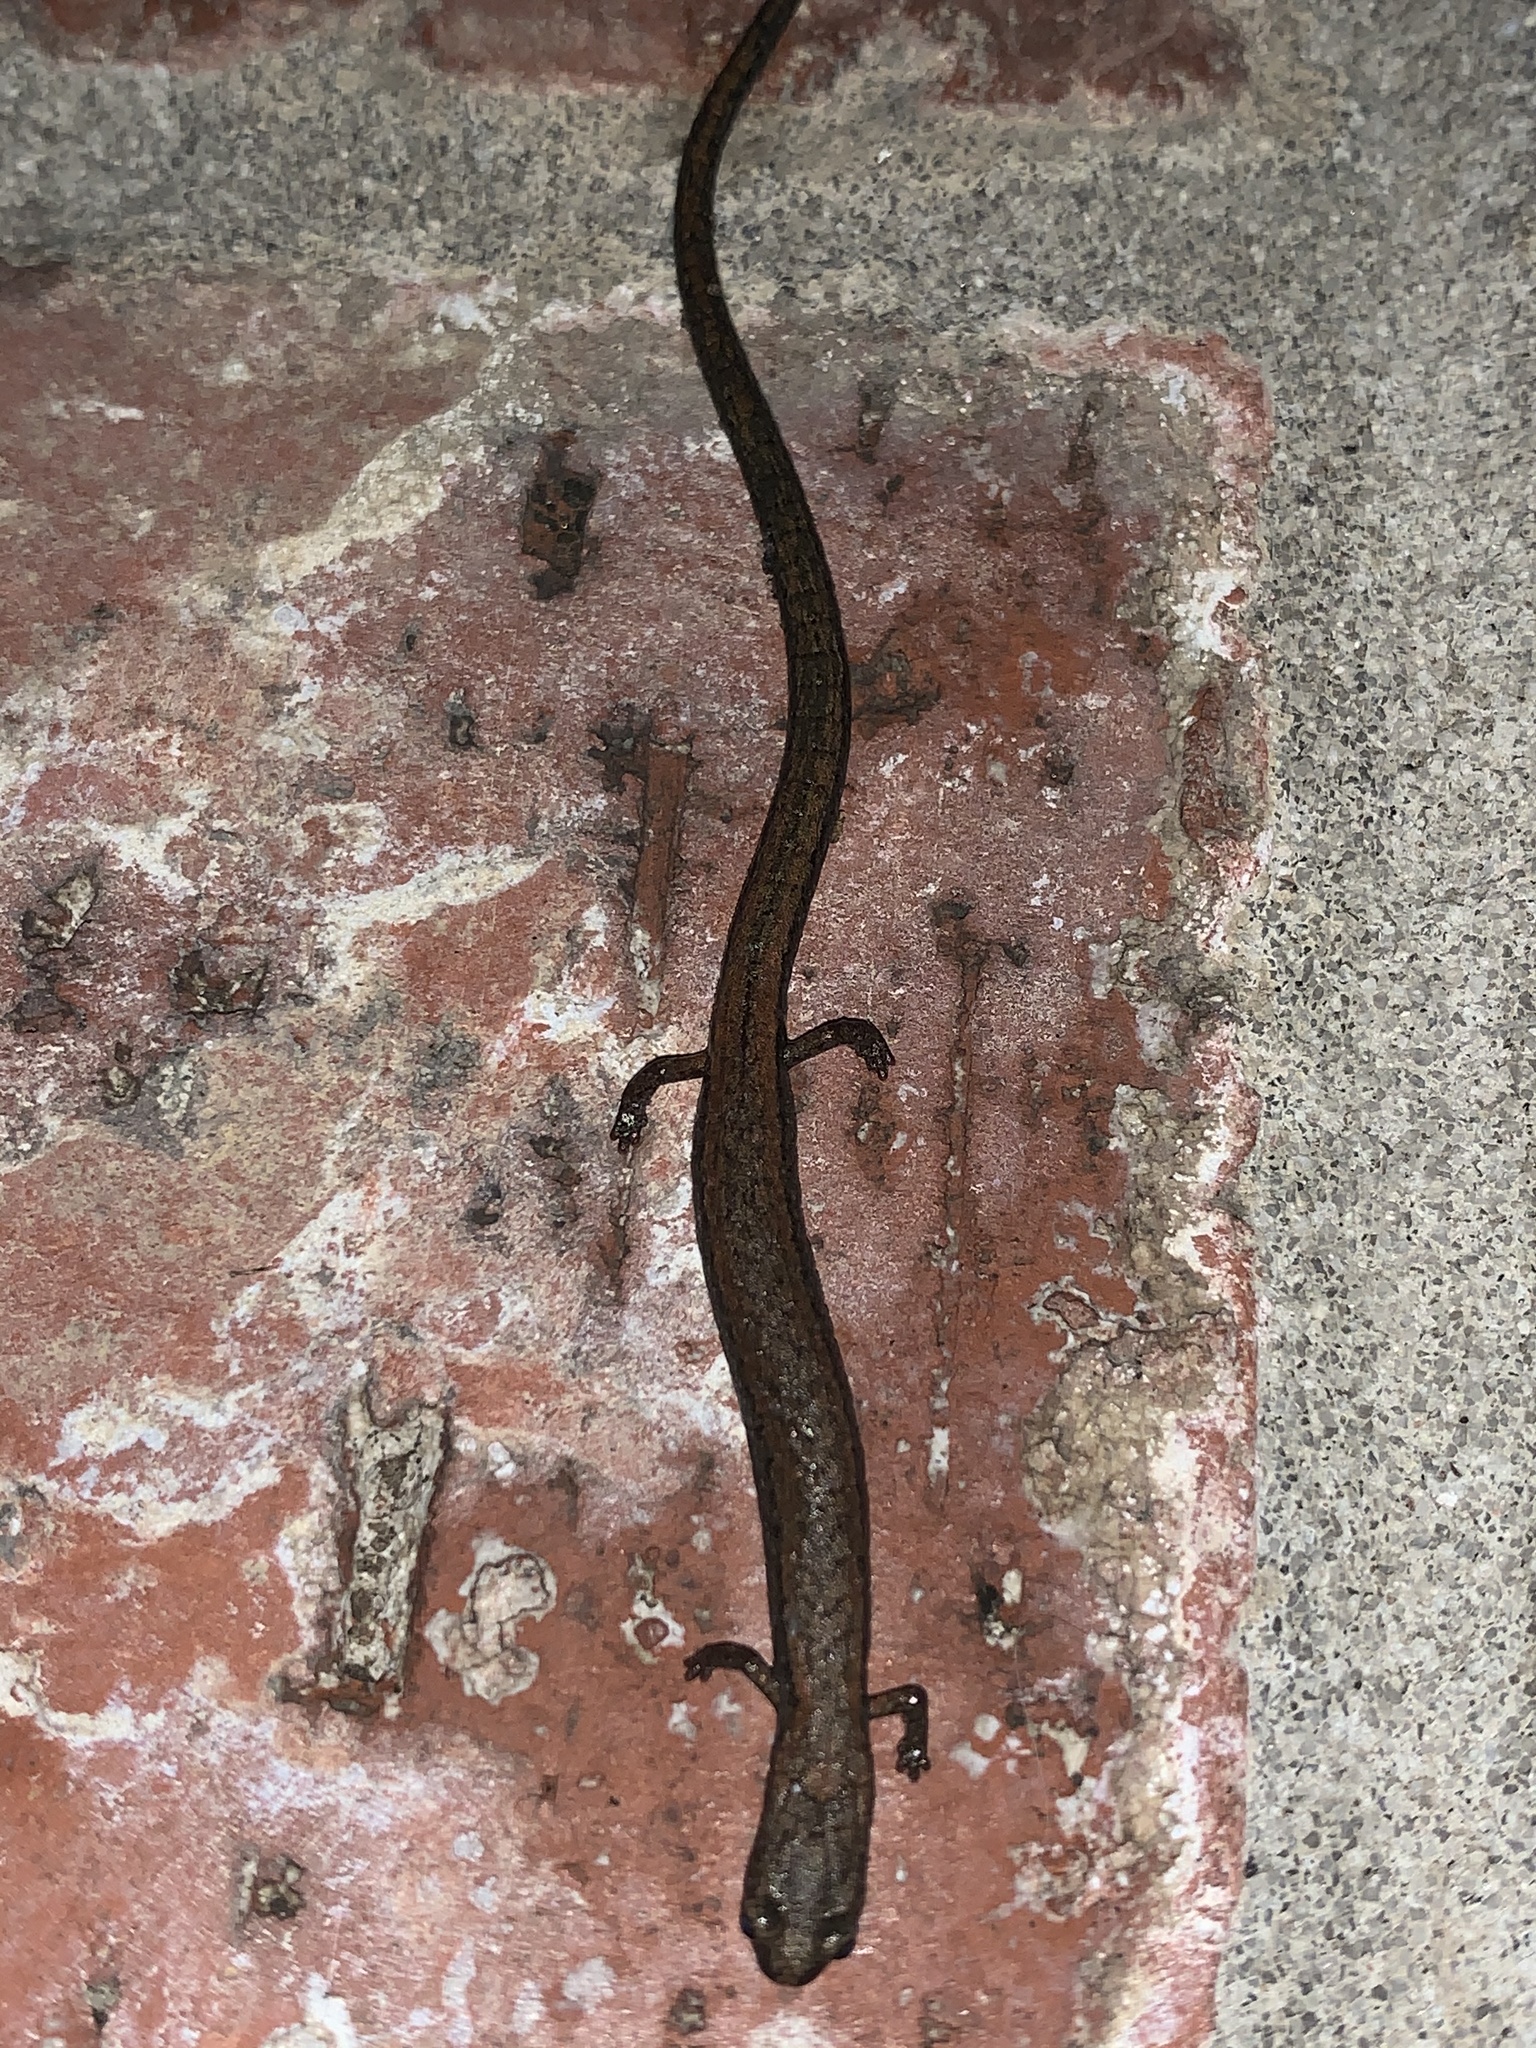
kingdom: Animalia
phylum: Chordata
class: Amphibia
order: Caudata
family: Plethodontidae
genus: Batrachoseps
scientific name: Batrachoseps nigriventris
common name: Black-bellied slender salamander
